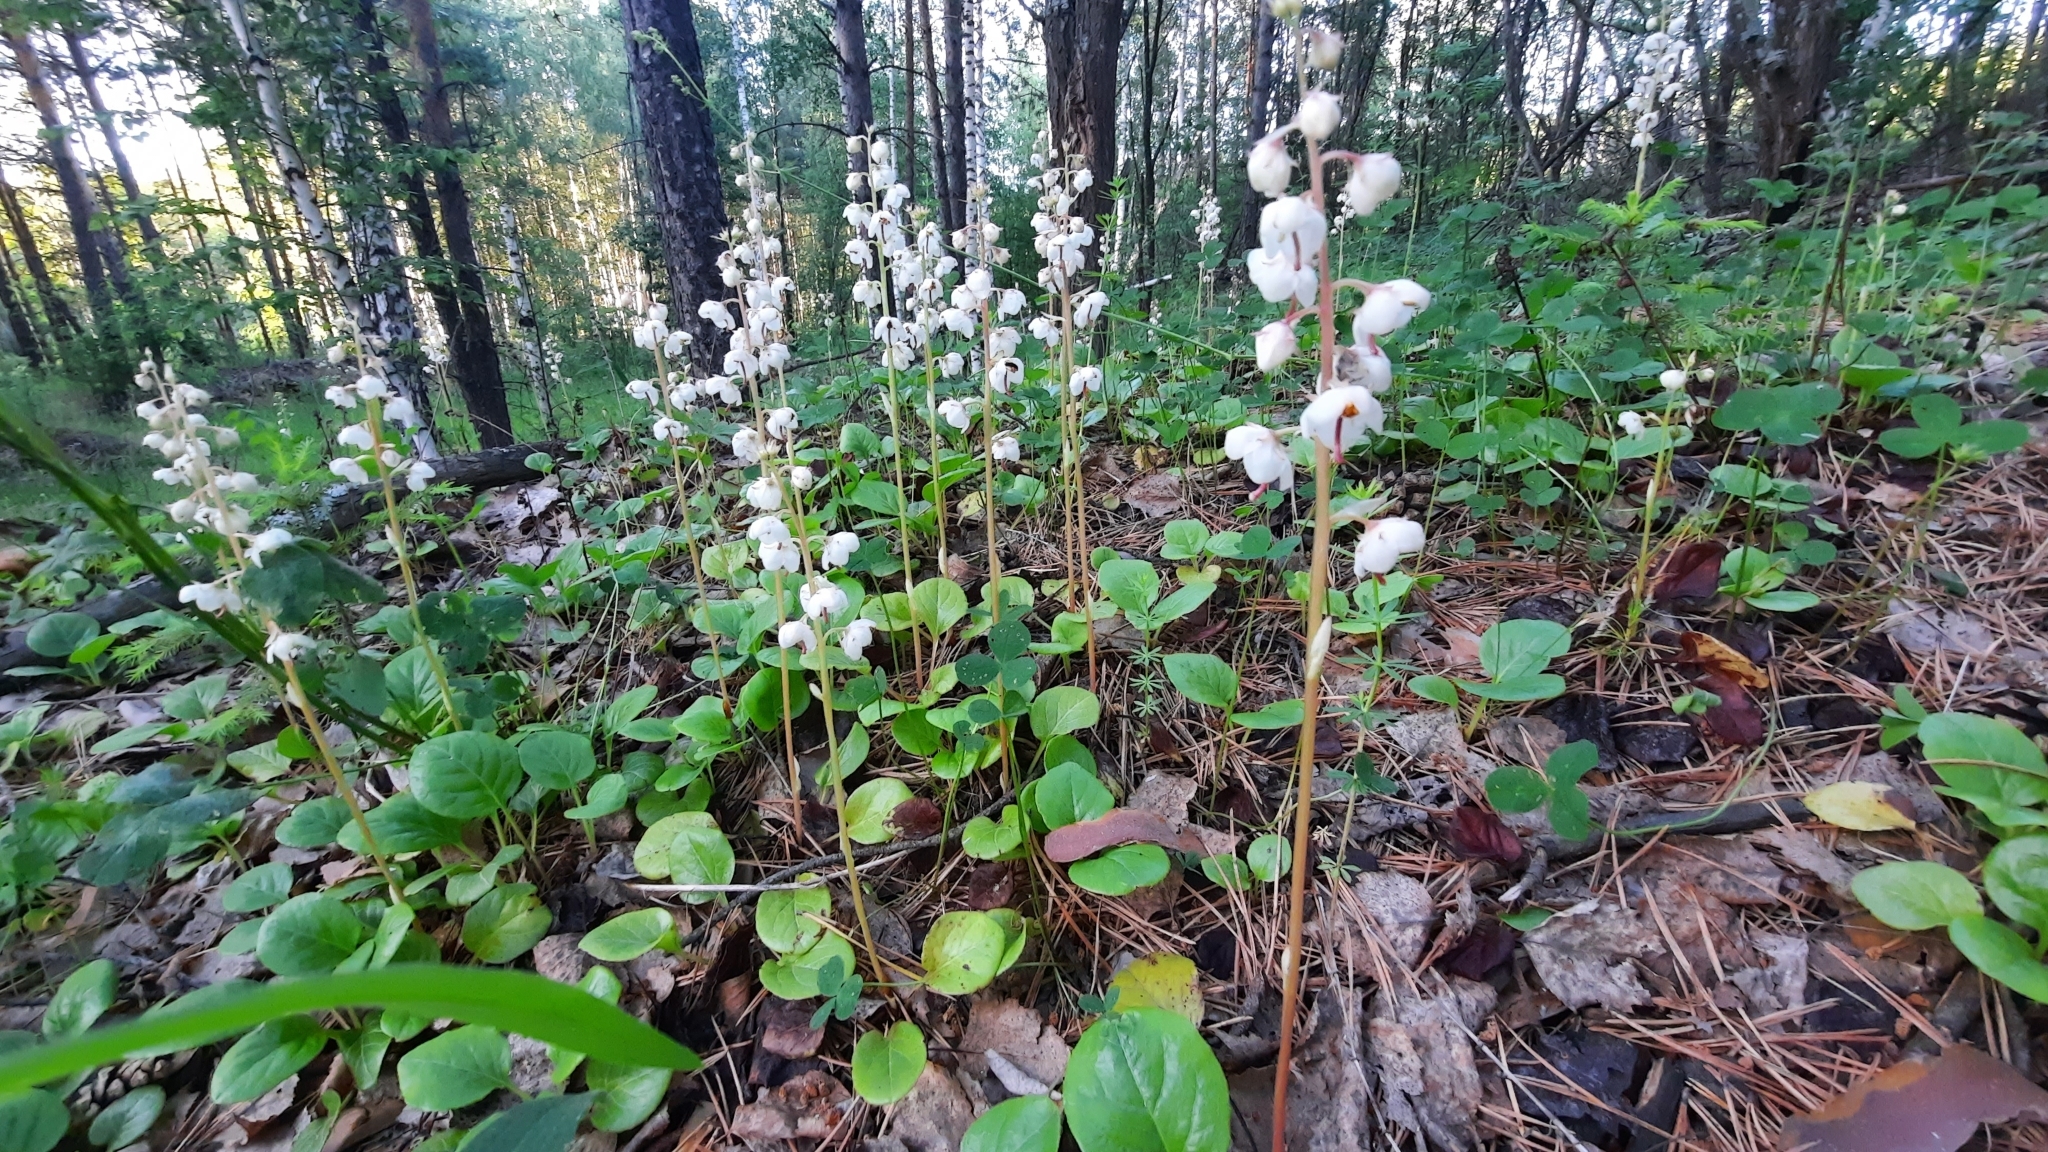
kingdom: Plantae
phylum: Tracheophyta
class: Magnoliopsida
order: Ericales
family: Ericaceae
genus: Pyrola
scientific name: Pyrola rotundifolia
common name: Round-leaved wintergreen
